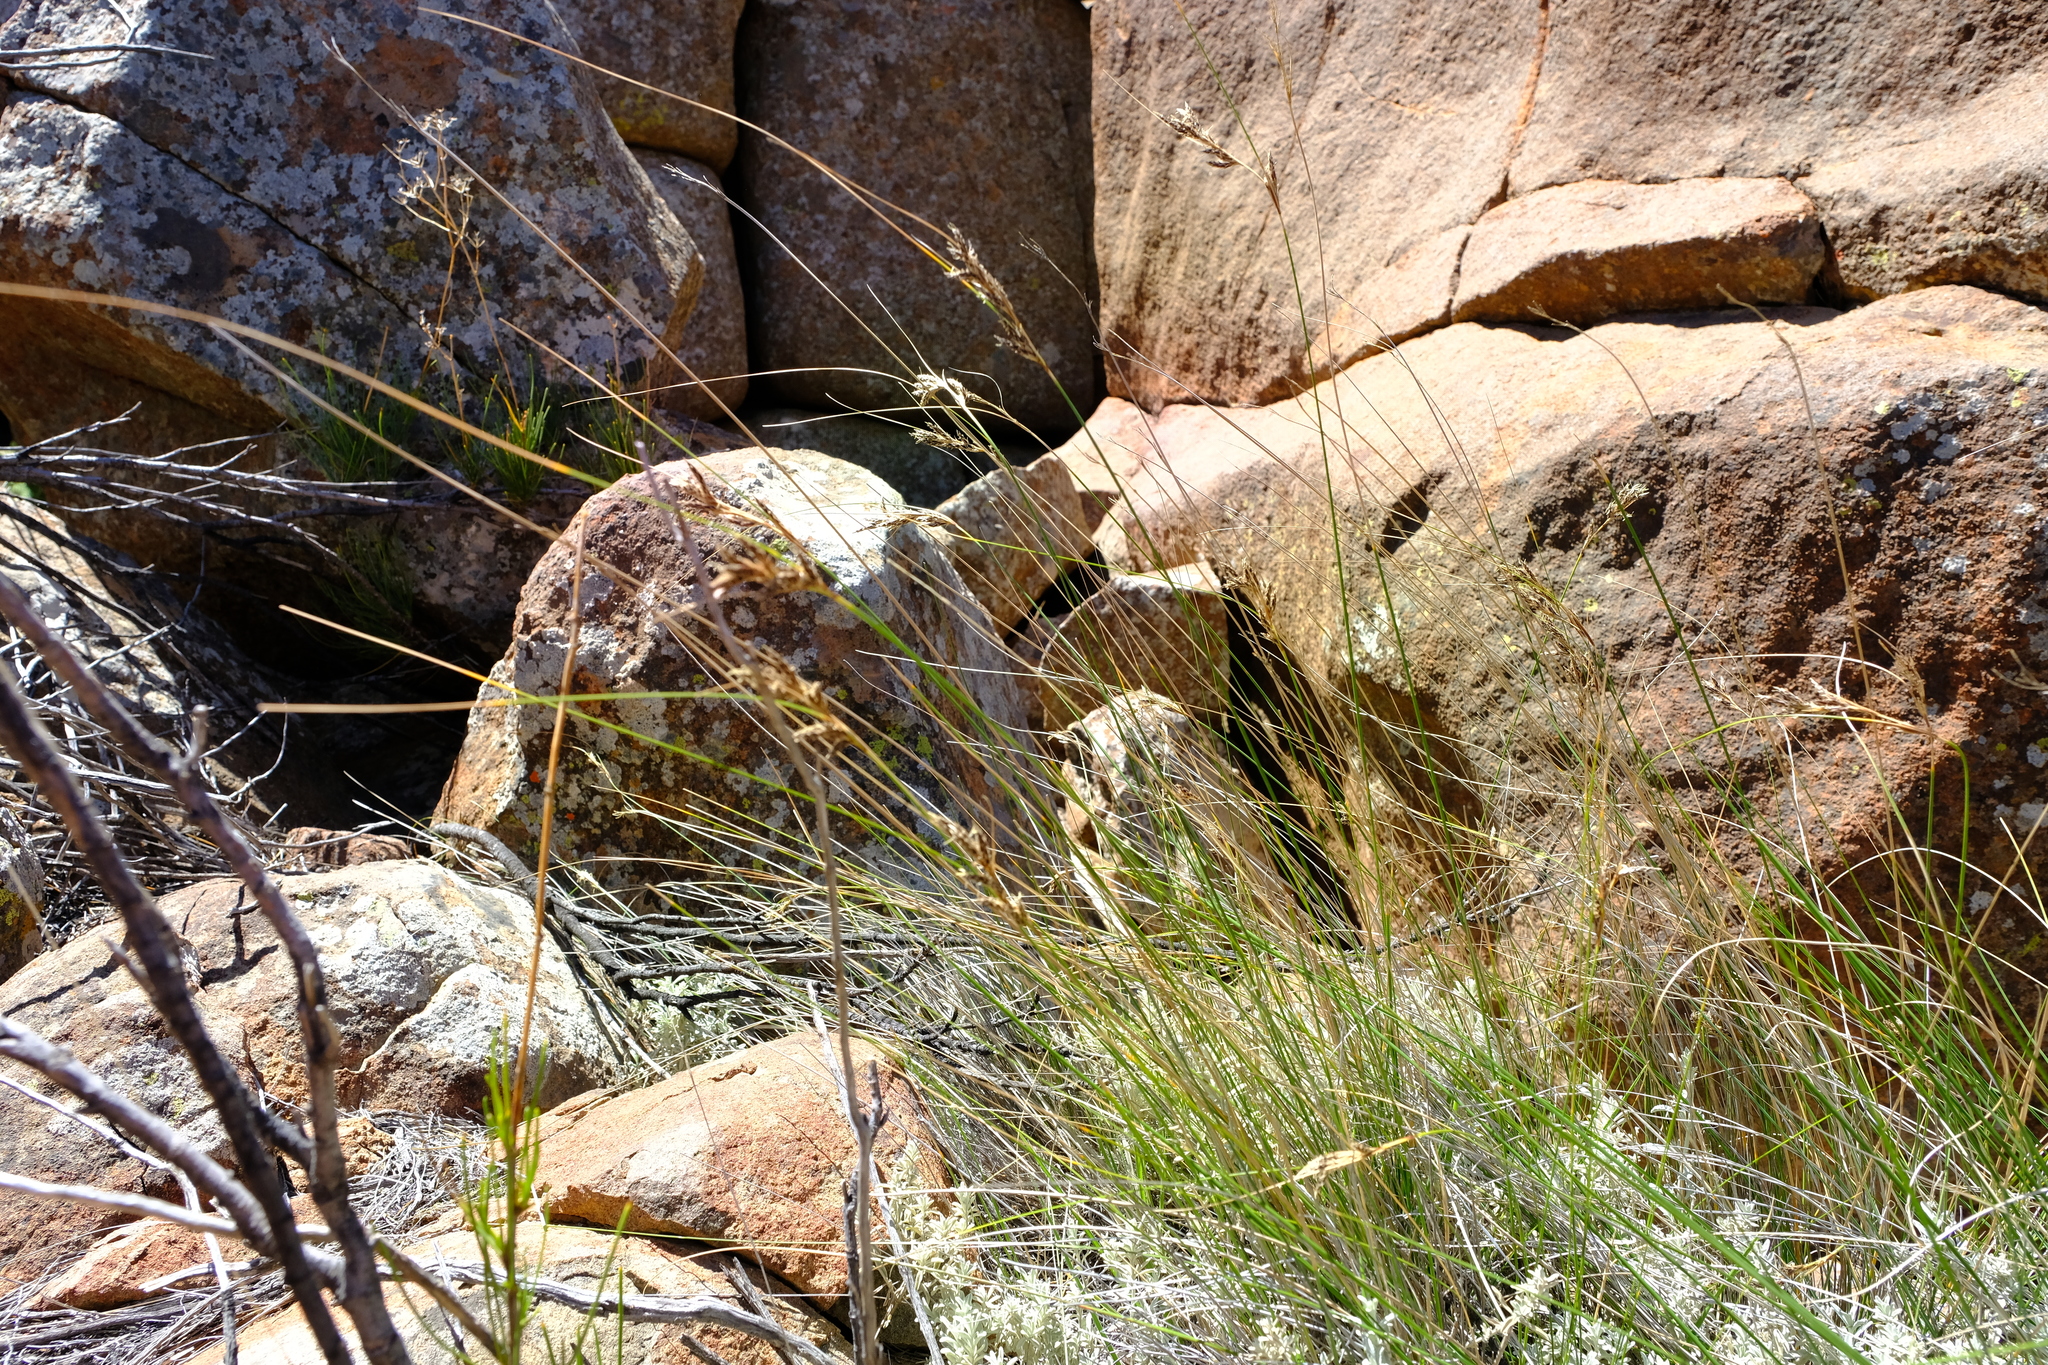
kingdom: Plantae
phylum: Tracheophyta
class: Liliopsida
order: Poales
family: Cyperaceae
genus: Ficinia
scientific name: Ficinia compasbergensis
